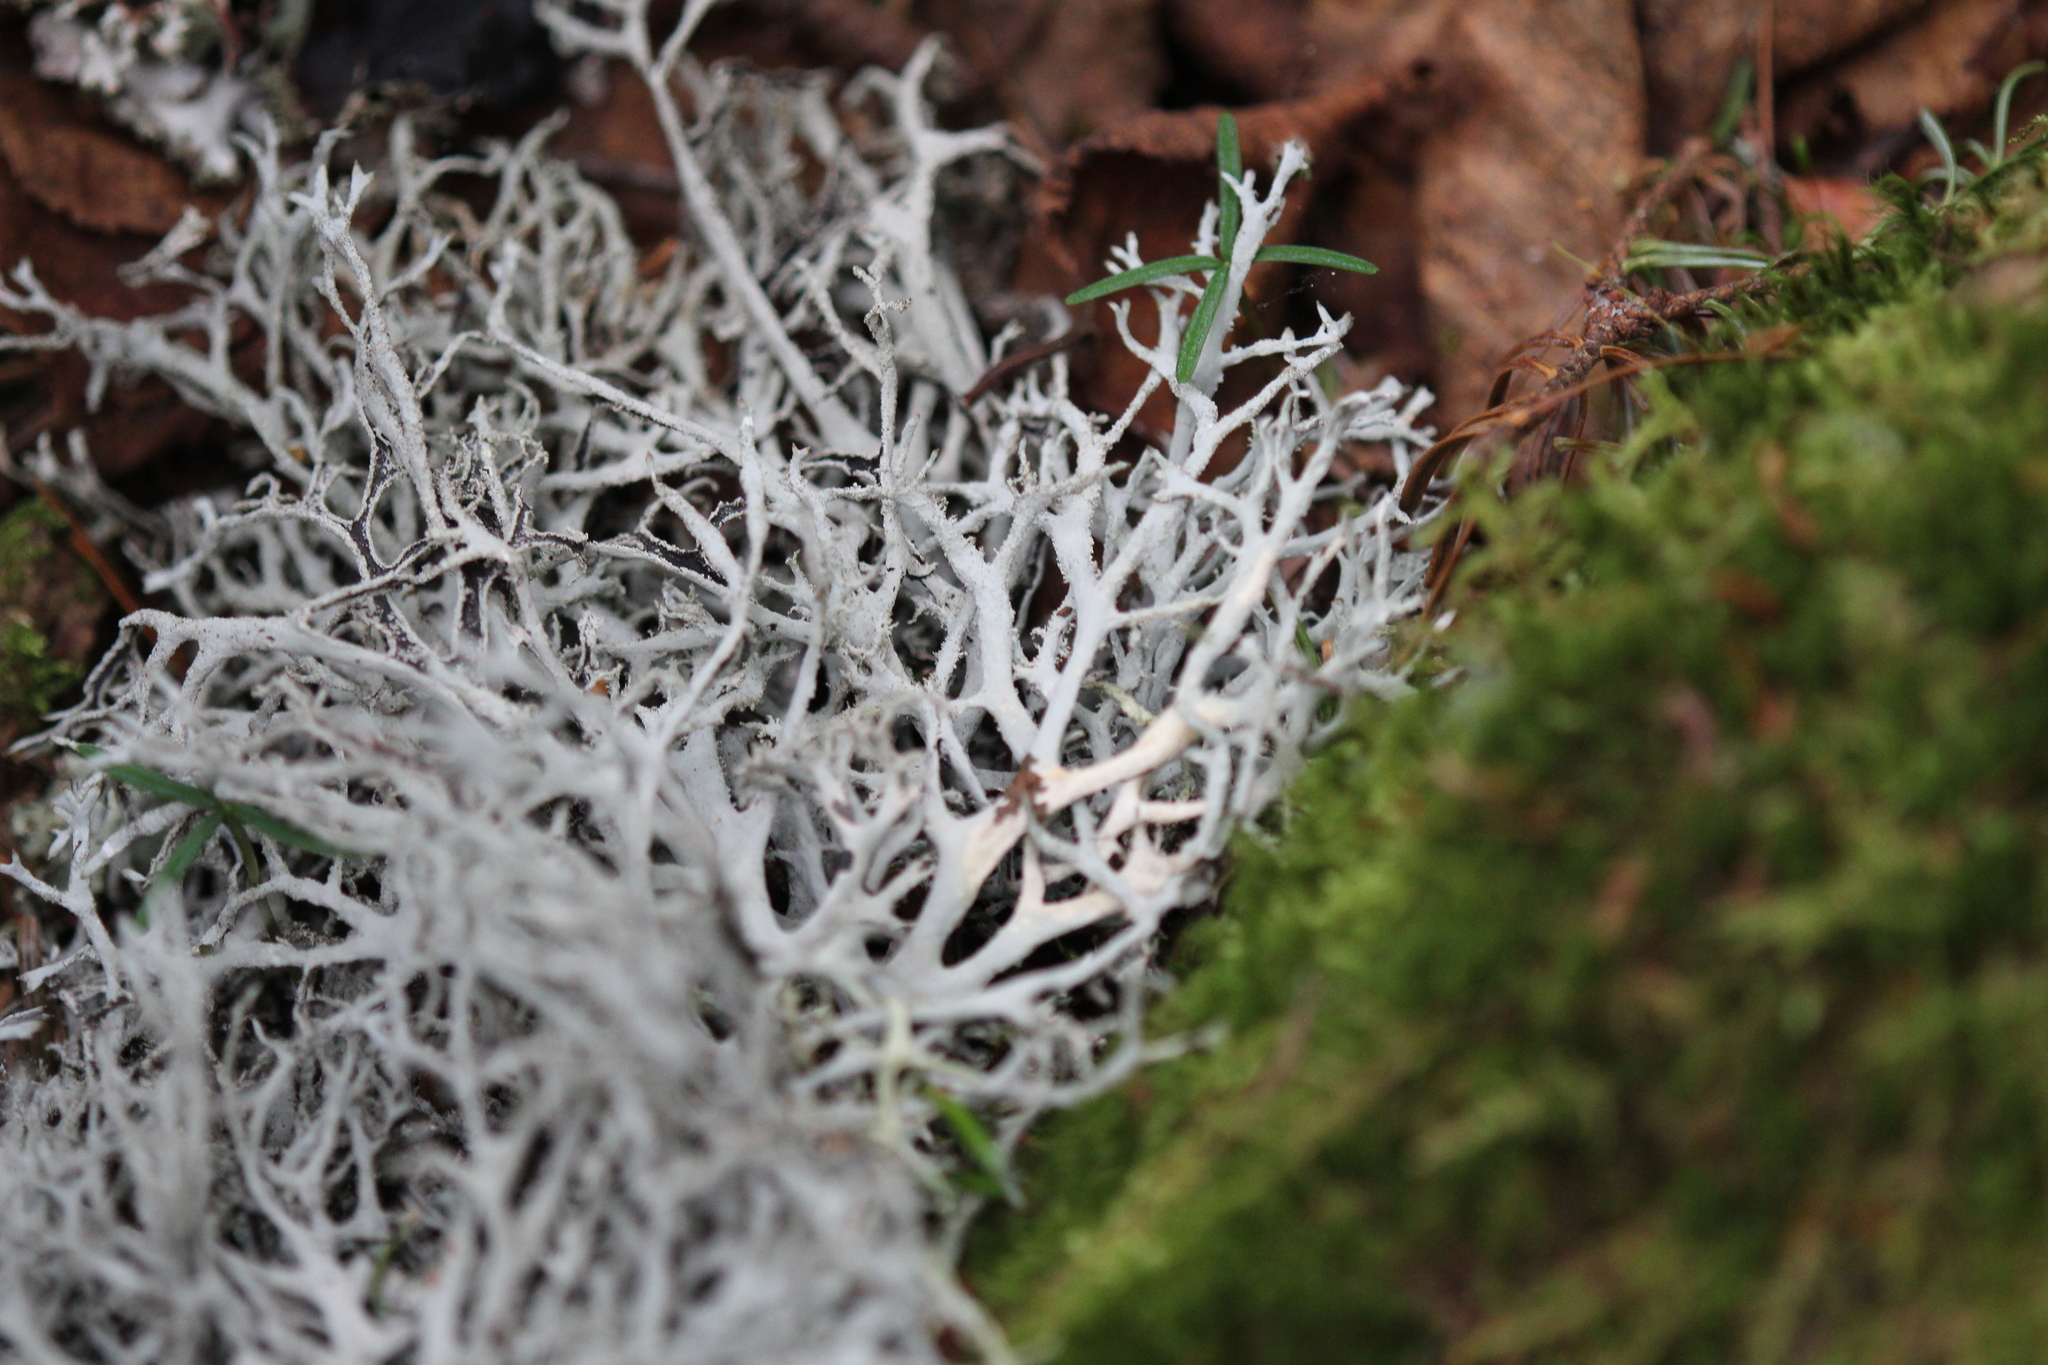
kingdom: Fungi
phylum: Ascomycota
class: Lecanoromycetes
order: Lecanorales
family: Parmeliaceae
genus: Pseudevernia
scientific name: Pseudevernia consocians
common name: Common antler lichen
